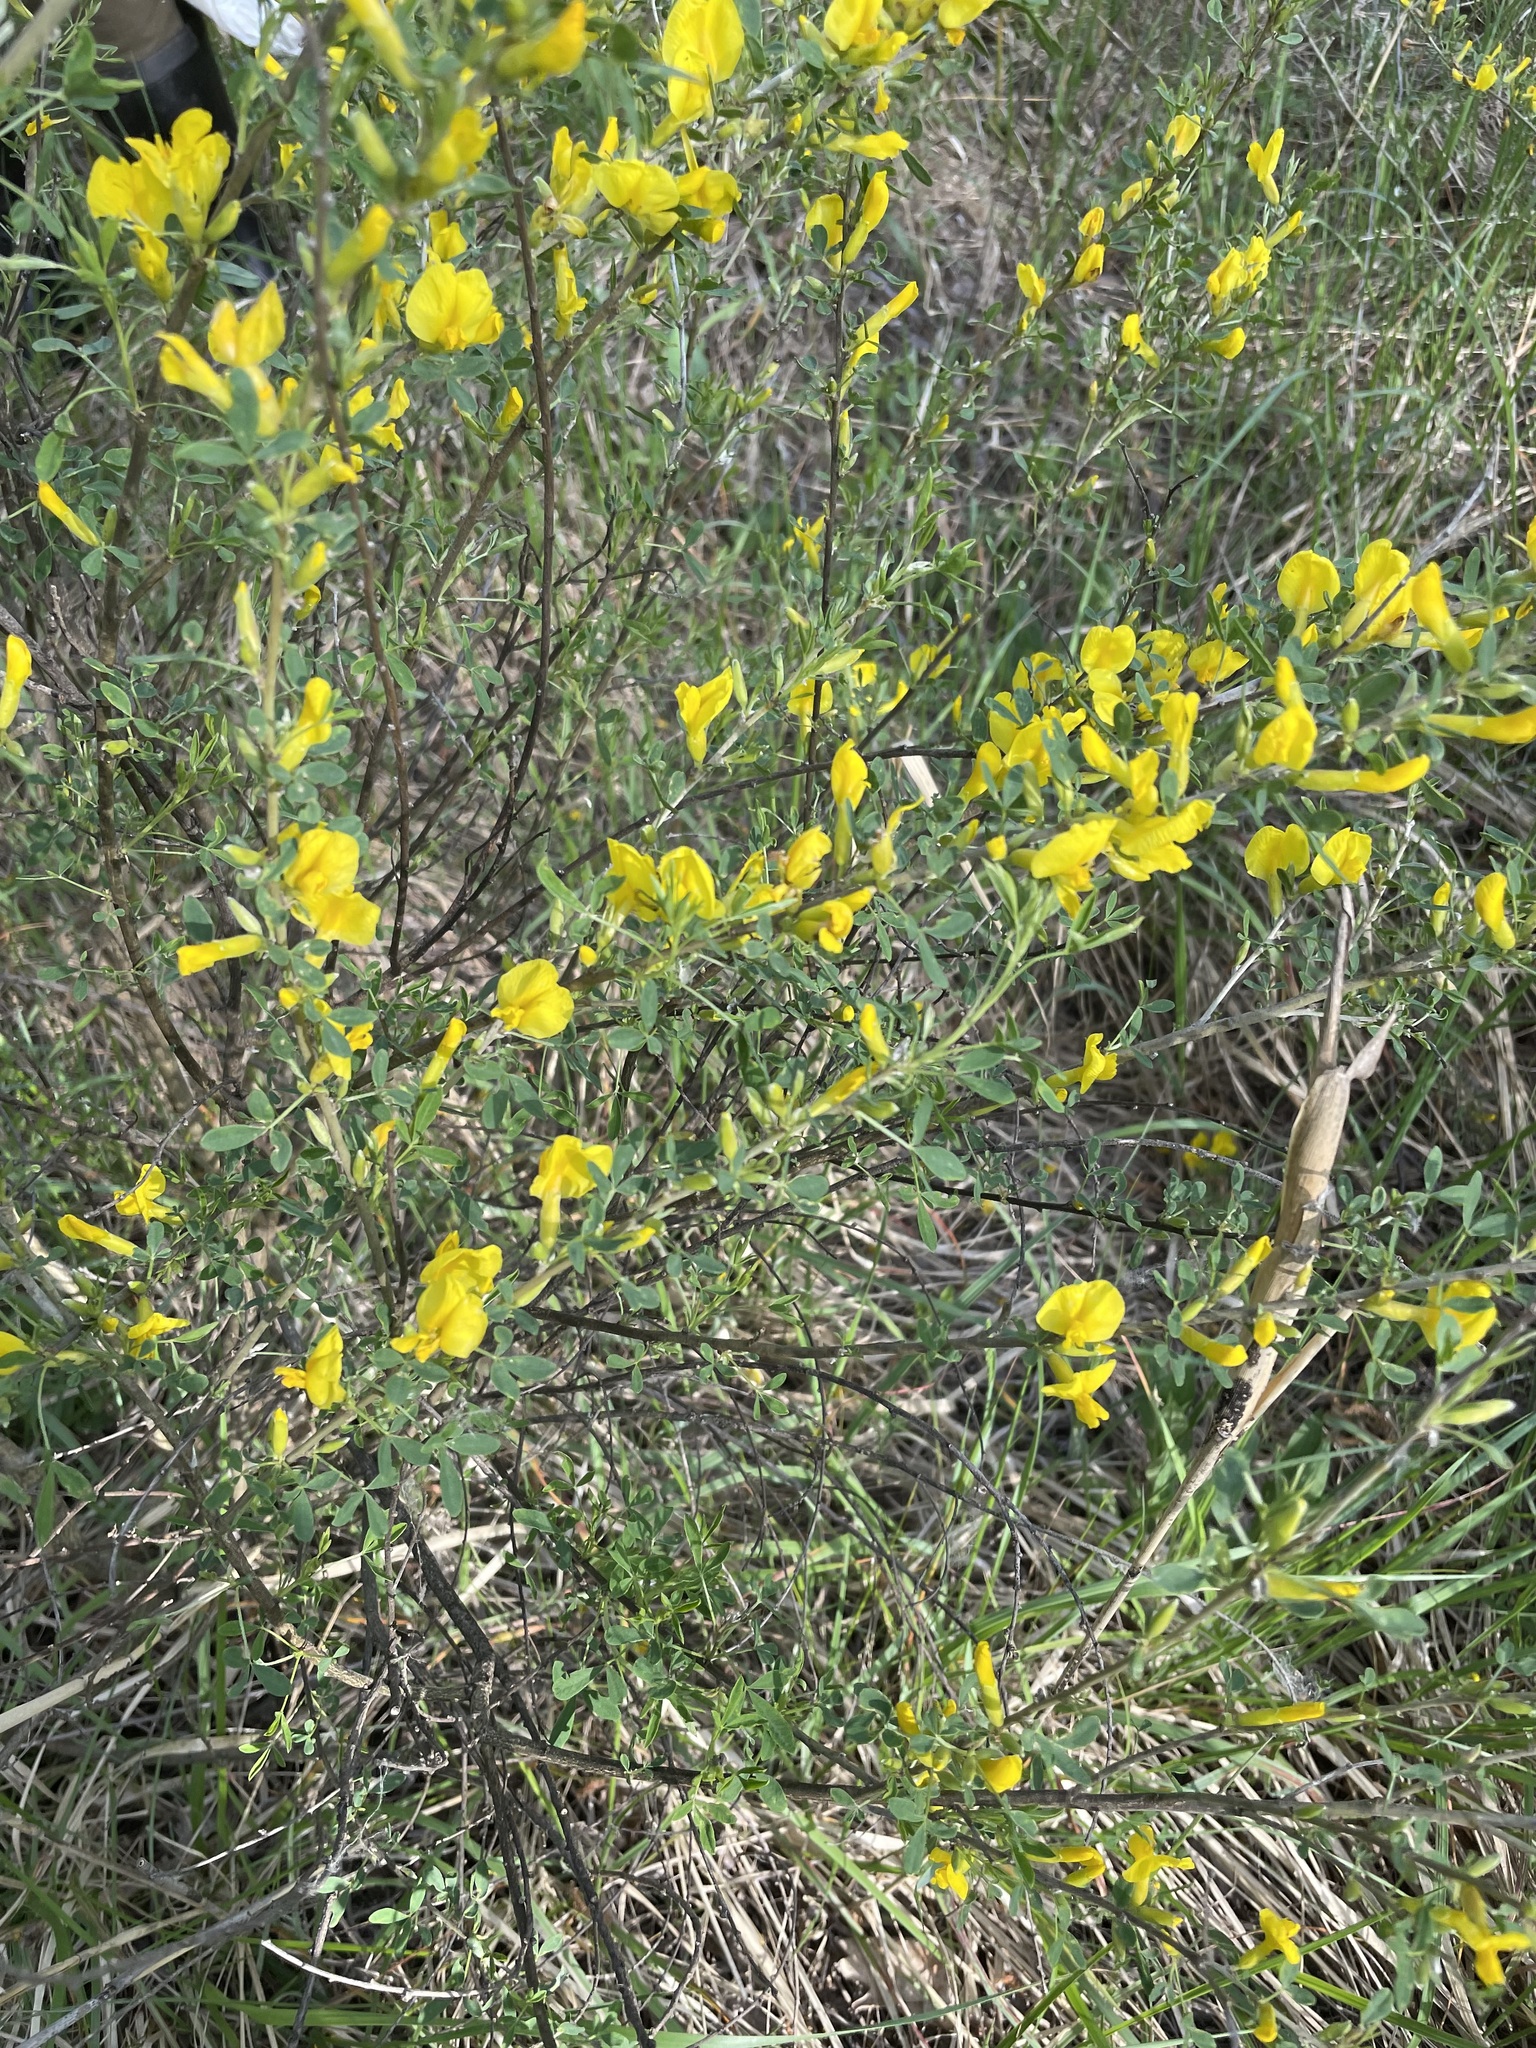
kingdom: Plantae
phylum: Tracheophyta
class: Magnoliopsida
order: Fabales
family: Fabaceae
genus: Chamaecytisus
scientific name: Chamaecytisus ruthenicus
